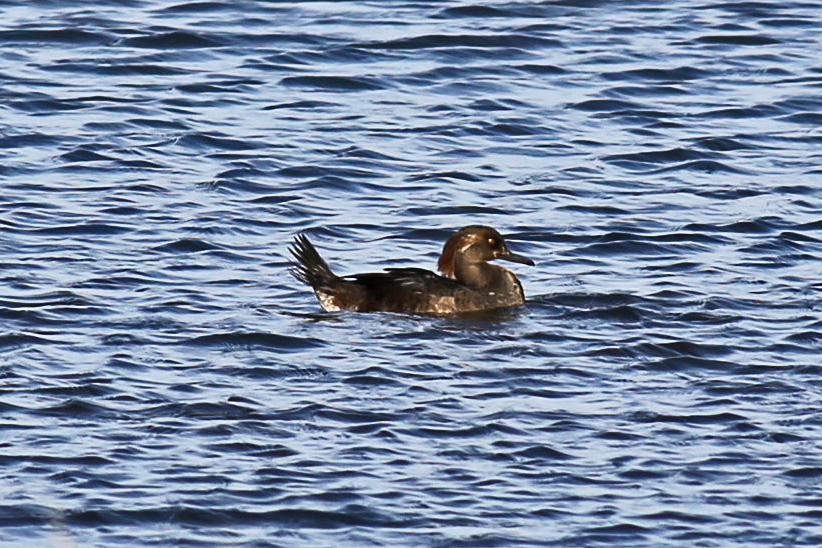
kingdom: Animalia
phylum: Chordata
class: Aves
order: Anseriformes
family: Anatidae
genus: Lophodytes
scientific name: Lophodytes cucullatus
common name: Hooded merganser
